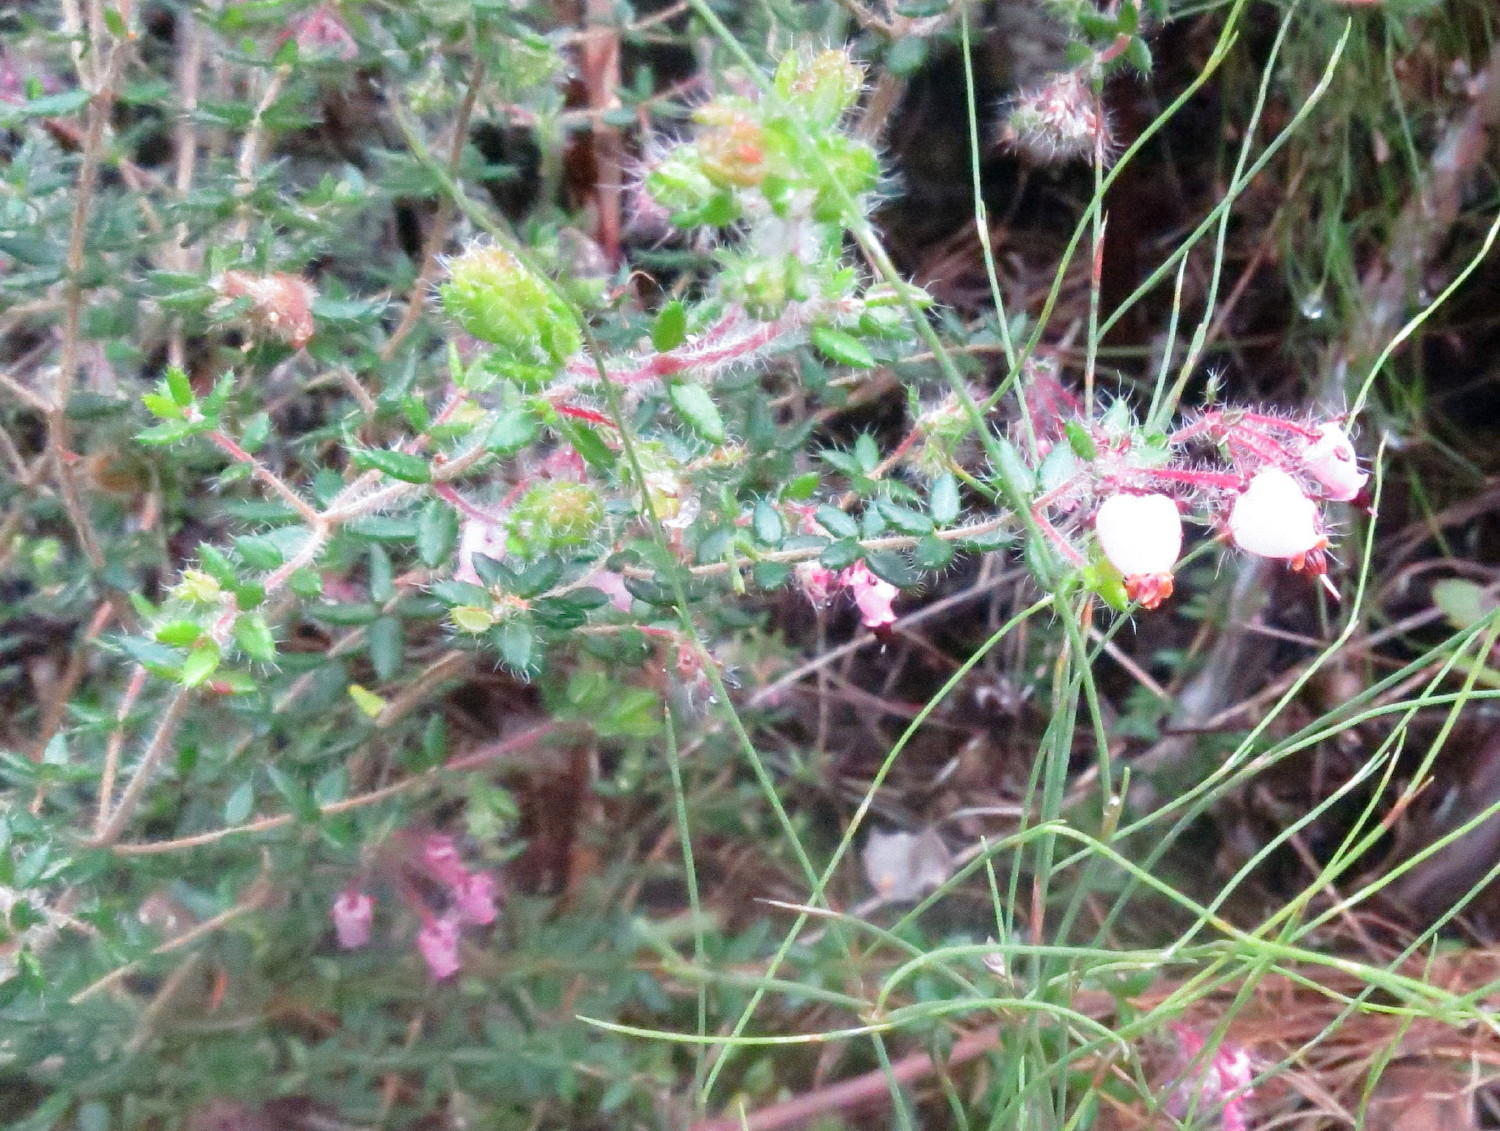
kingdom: Plantae
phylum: Tracheophyta
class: Magnoliopsida
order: Ericales
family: Ericaceae
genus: Erica
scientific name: Erica aneimena
